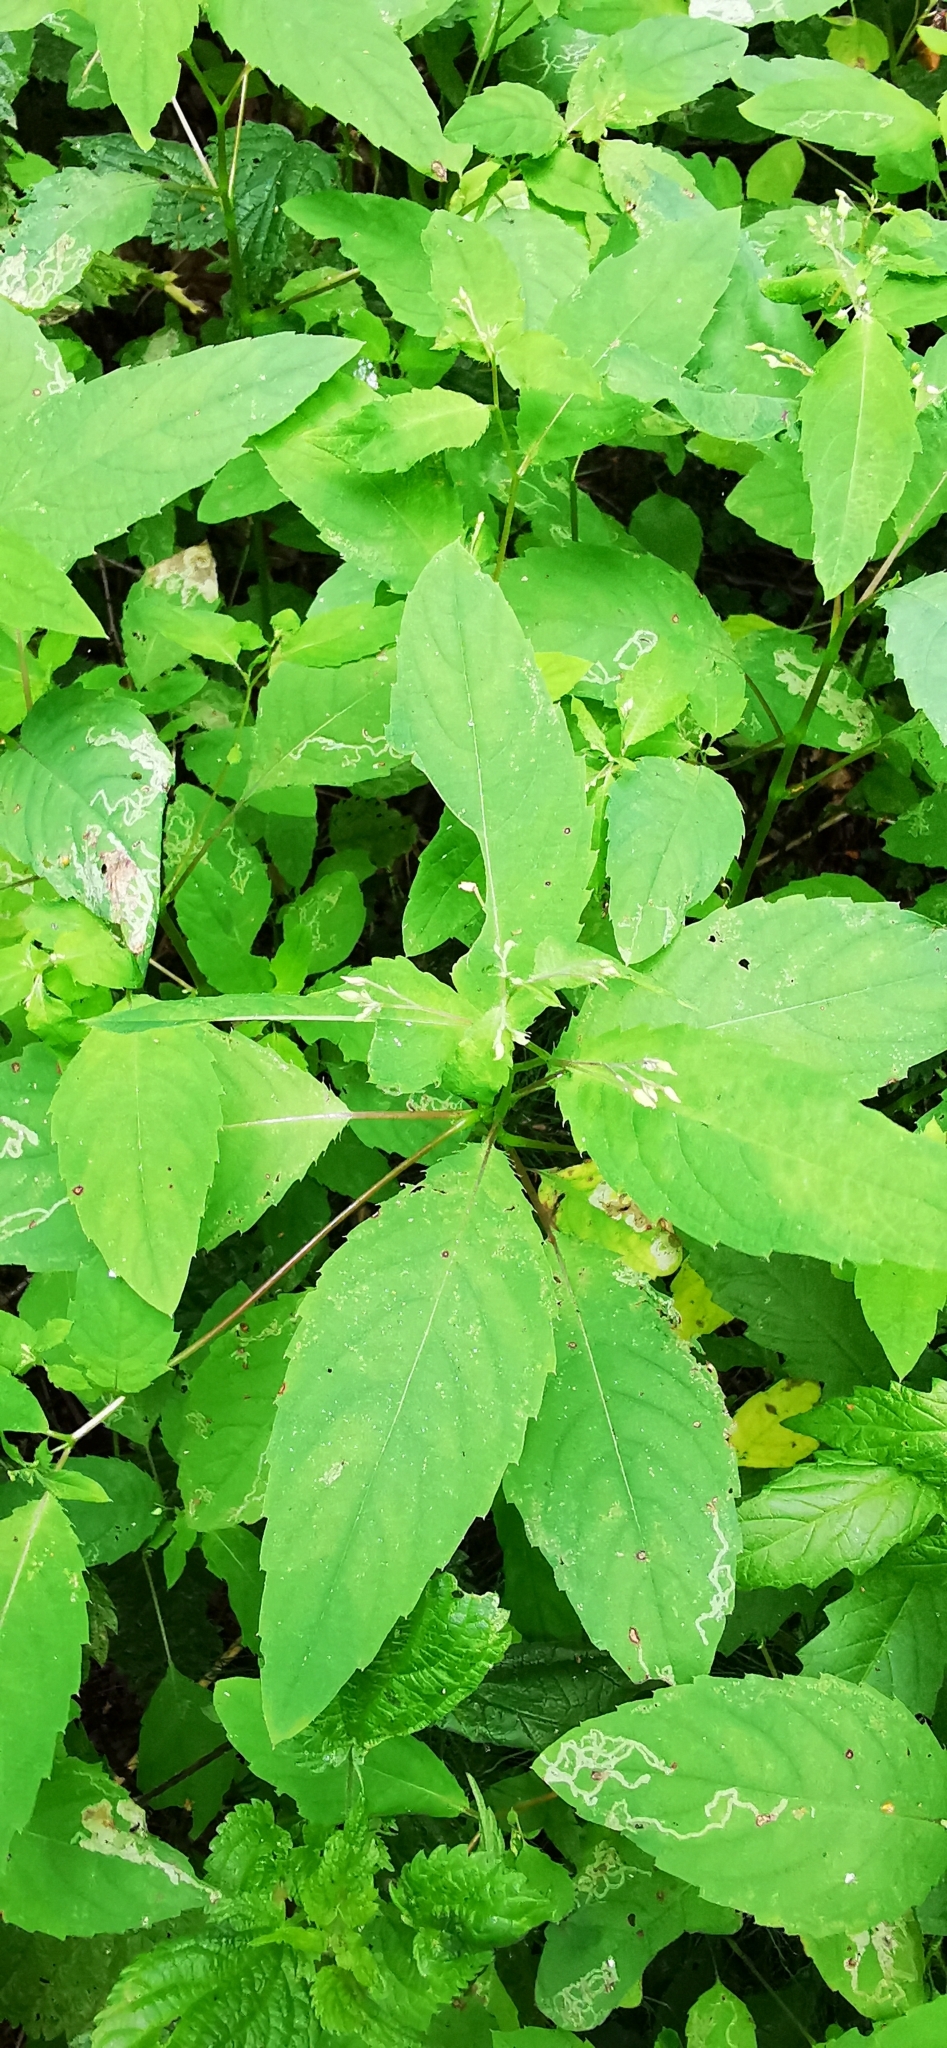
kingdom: Plantae
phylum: Tracheophyta
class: Magnoliopsida
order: Ericales
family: Balsaminaceae
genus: Impatiens
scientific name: Impatiens noli-tangere
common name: Touch-me-not balsam
